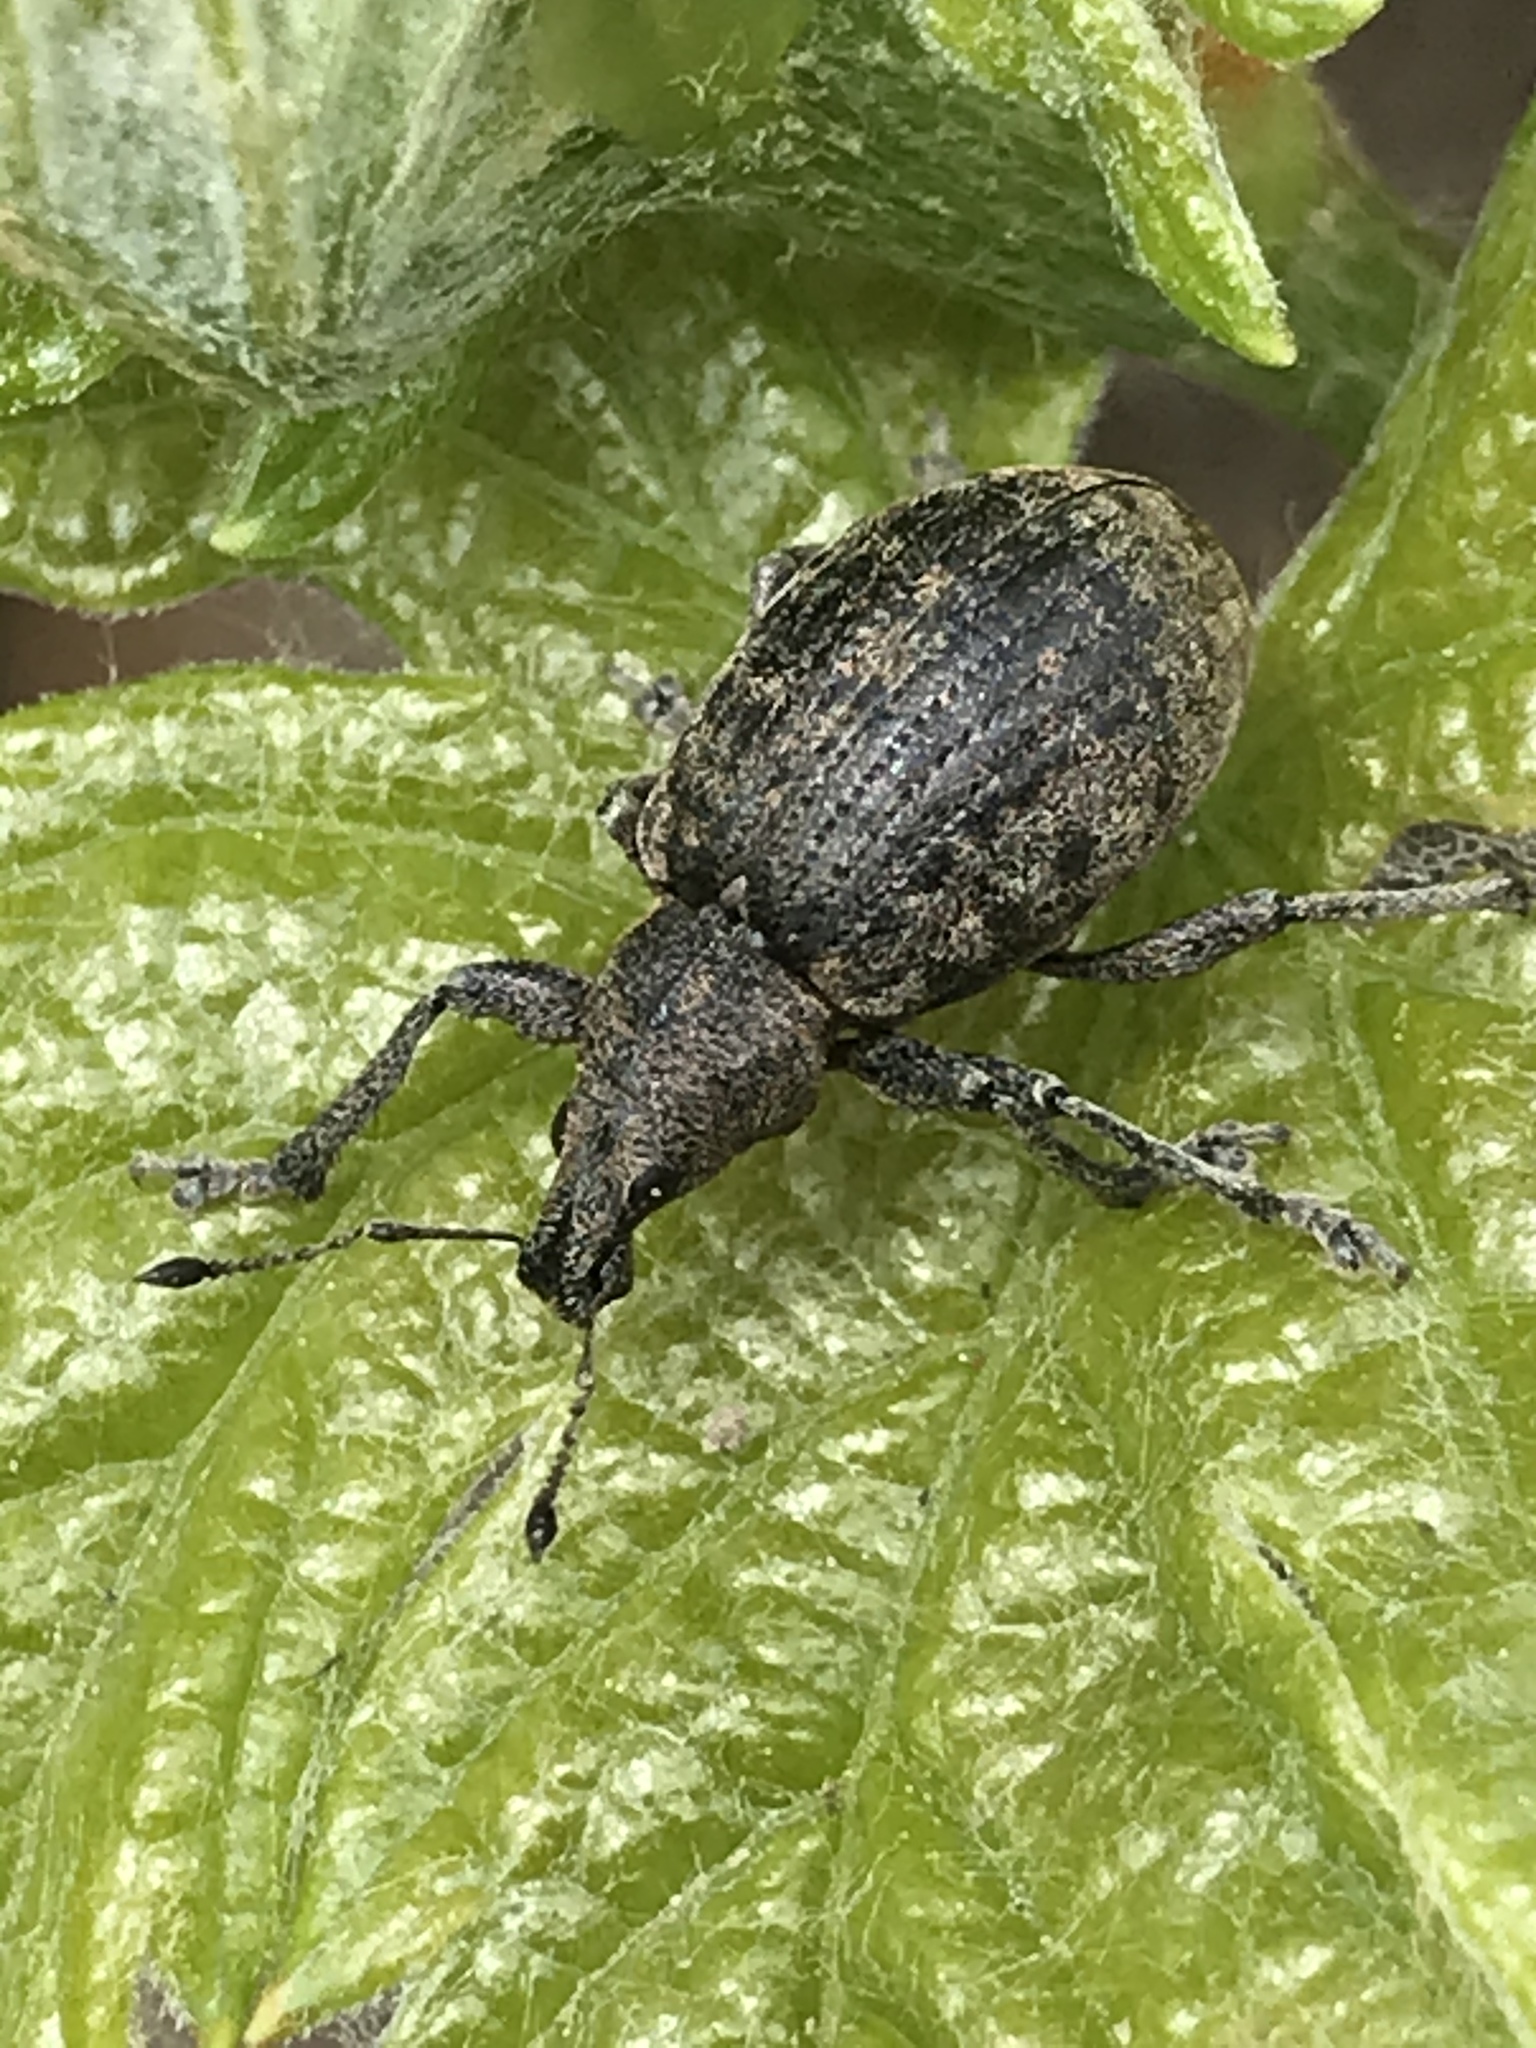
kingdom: Animalia
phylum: Arthropoda
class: Insecta
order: Coleoptera
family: Curculionidae
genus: Liophloeus
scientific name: Liophloeus tessulatus
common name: Weevil
